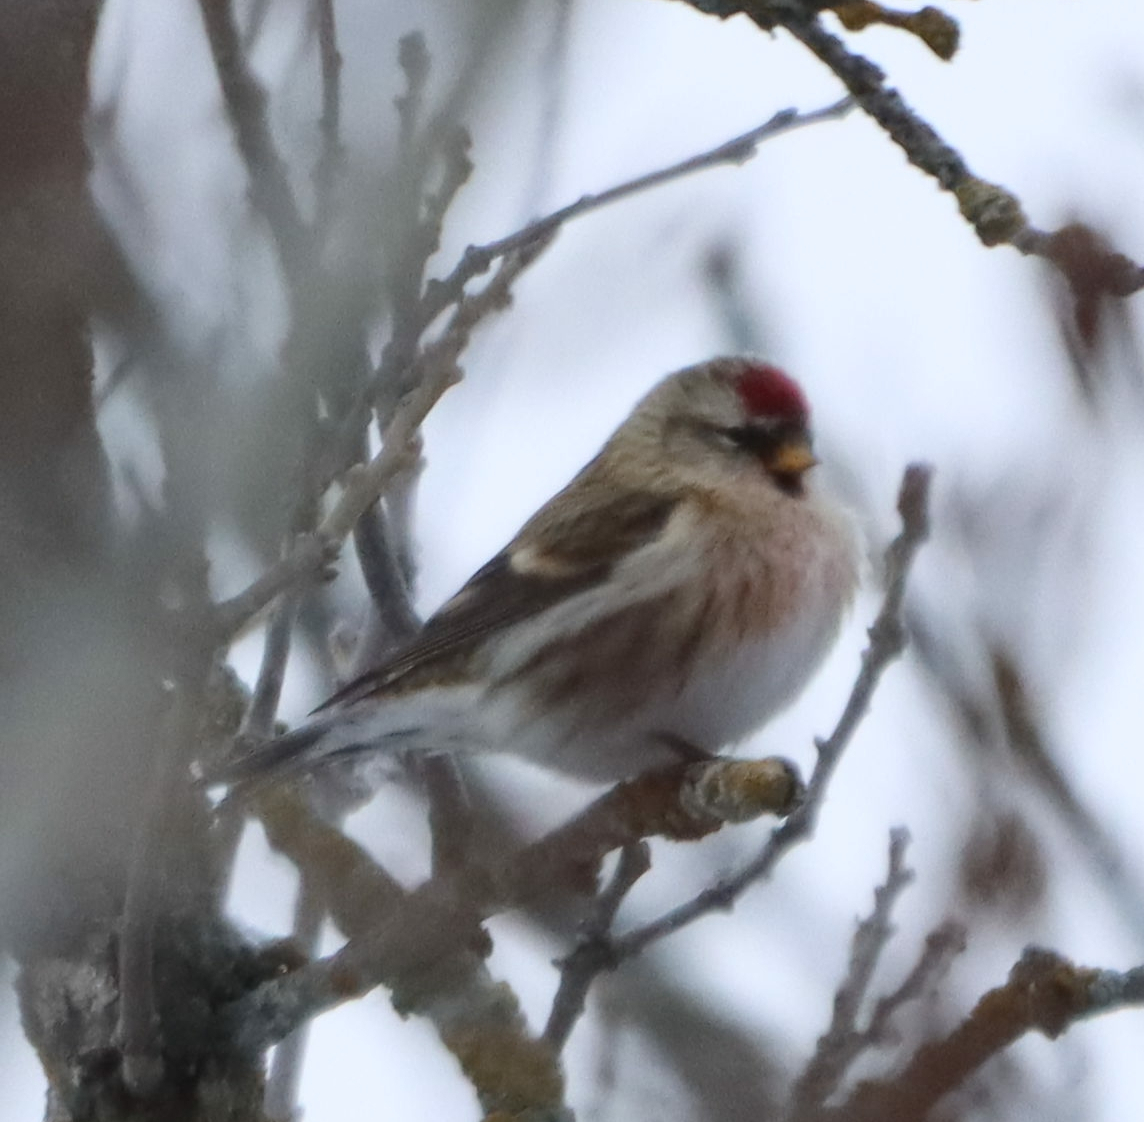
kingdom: Animalia
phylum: Chordata
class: Aves
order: Passeriformes
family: Fringillidae
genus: Acanthis
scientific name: Acanthis flammea
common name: Common redpoll
